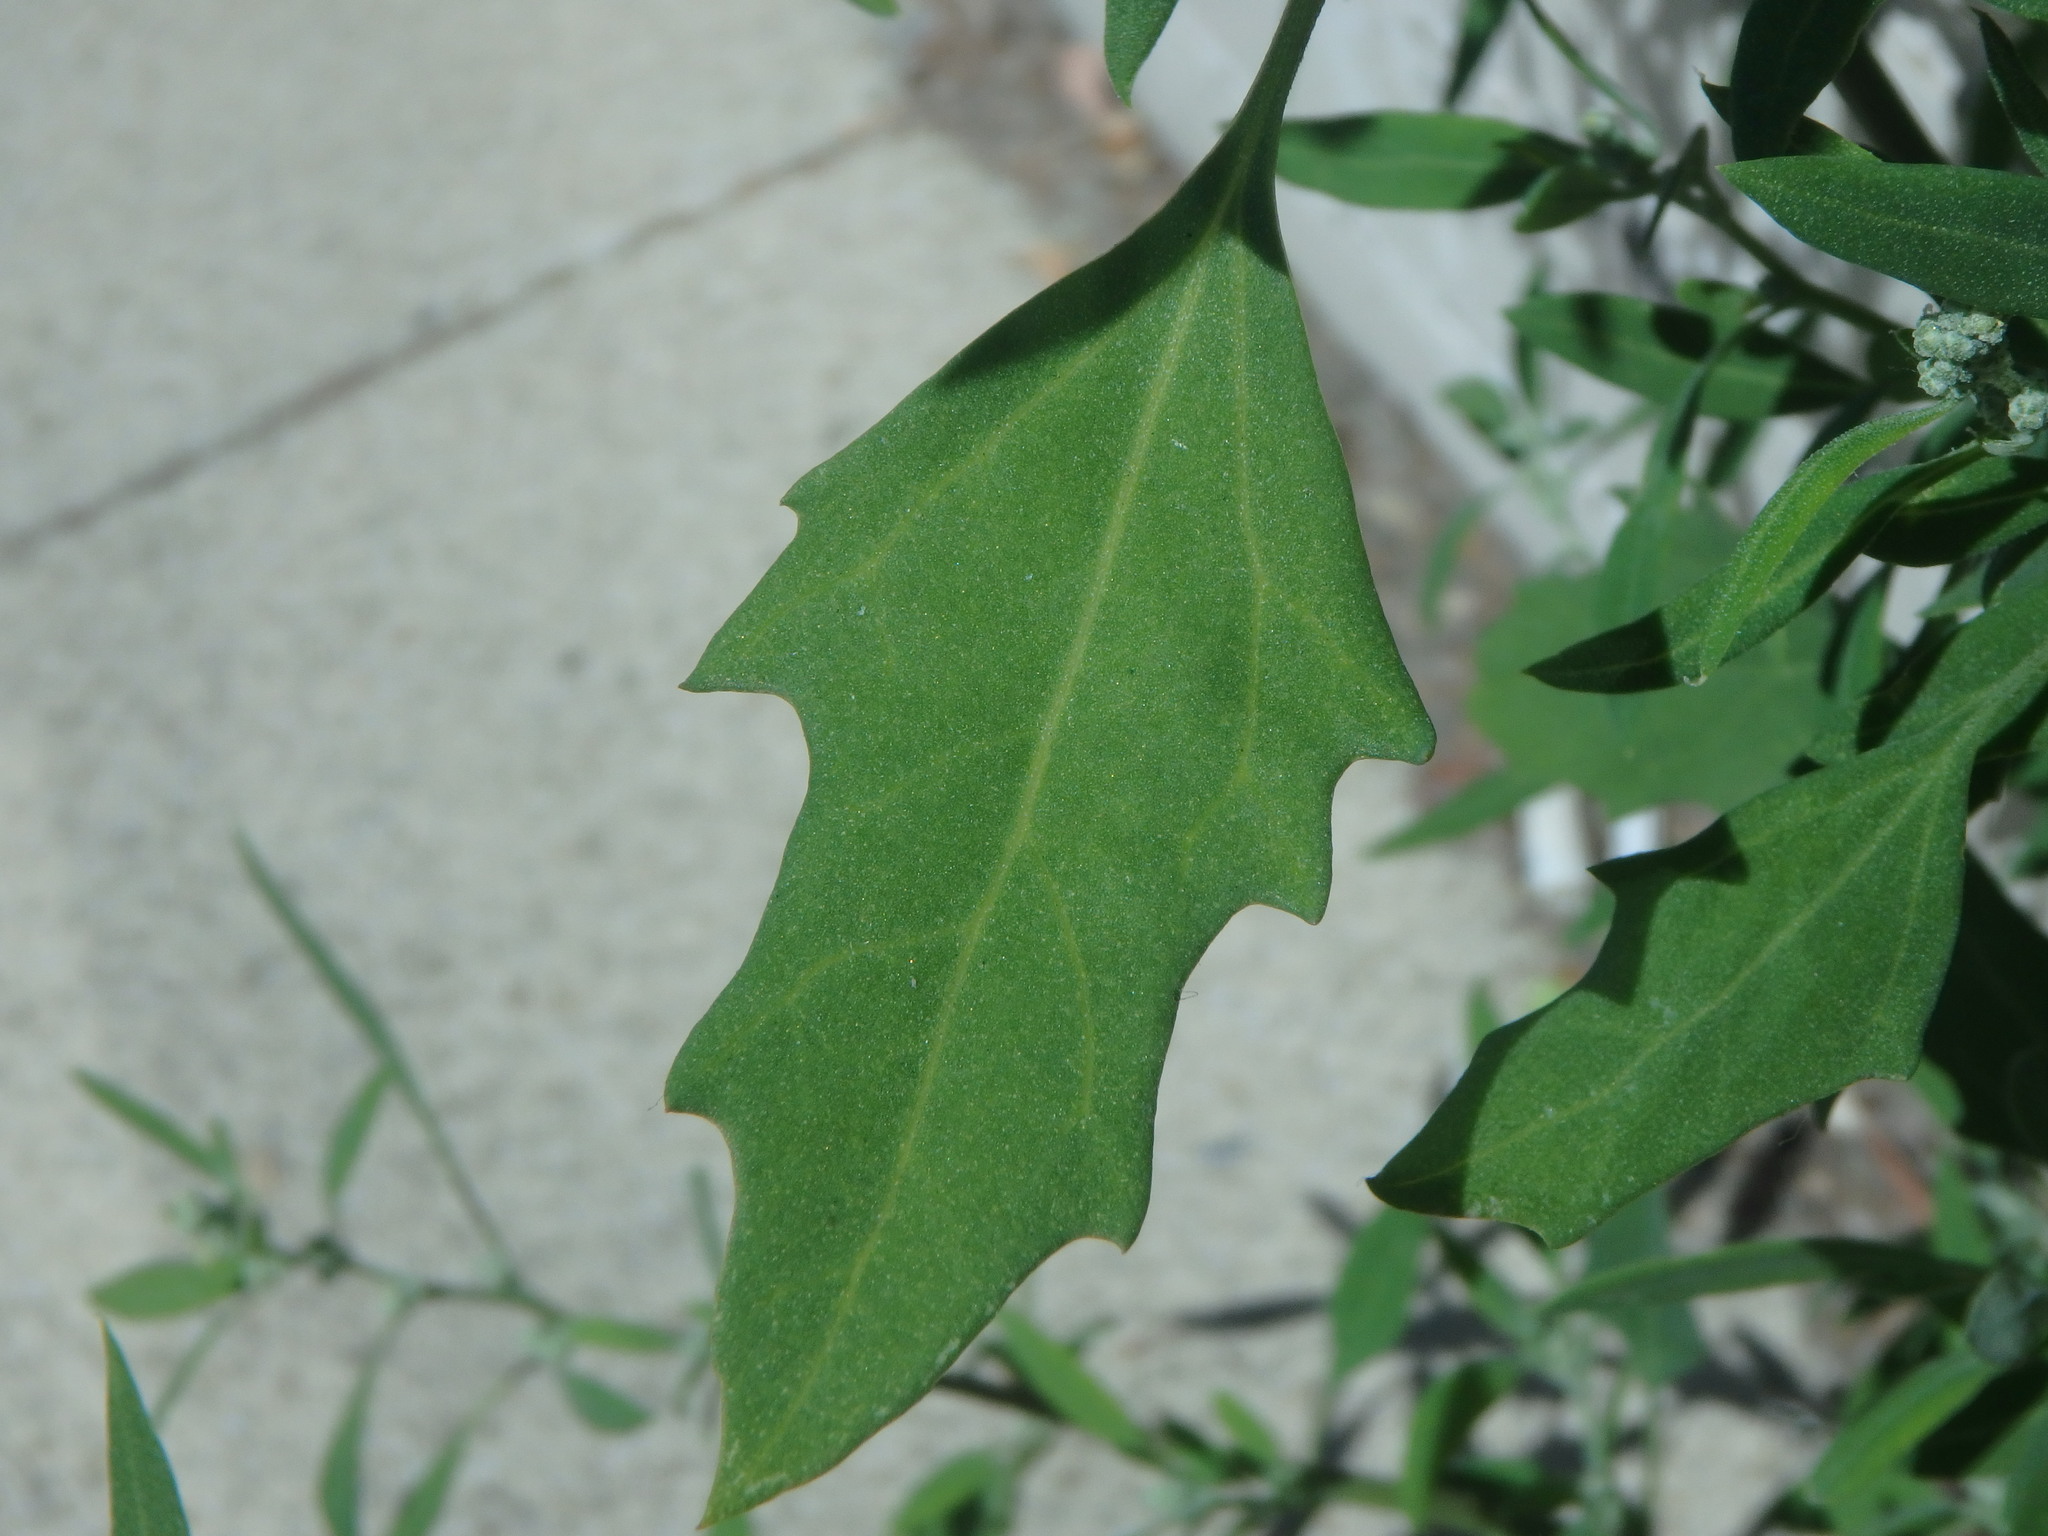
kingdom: Plantae
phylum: Tracheophyta
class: Magnoliopsida
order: Caryophyllales
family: Amaranthaceae
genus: Chenopodium
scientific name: Chenopodium album
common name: Fat-hen
